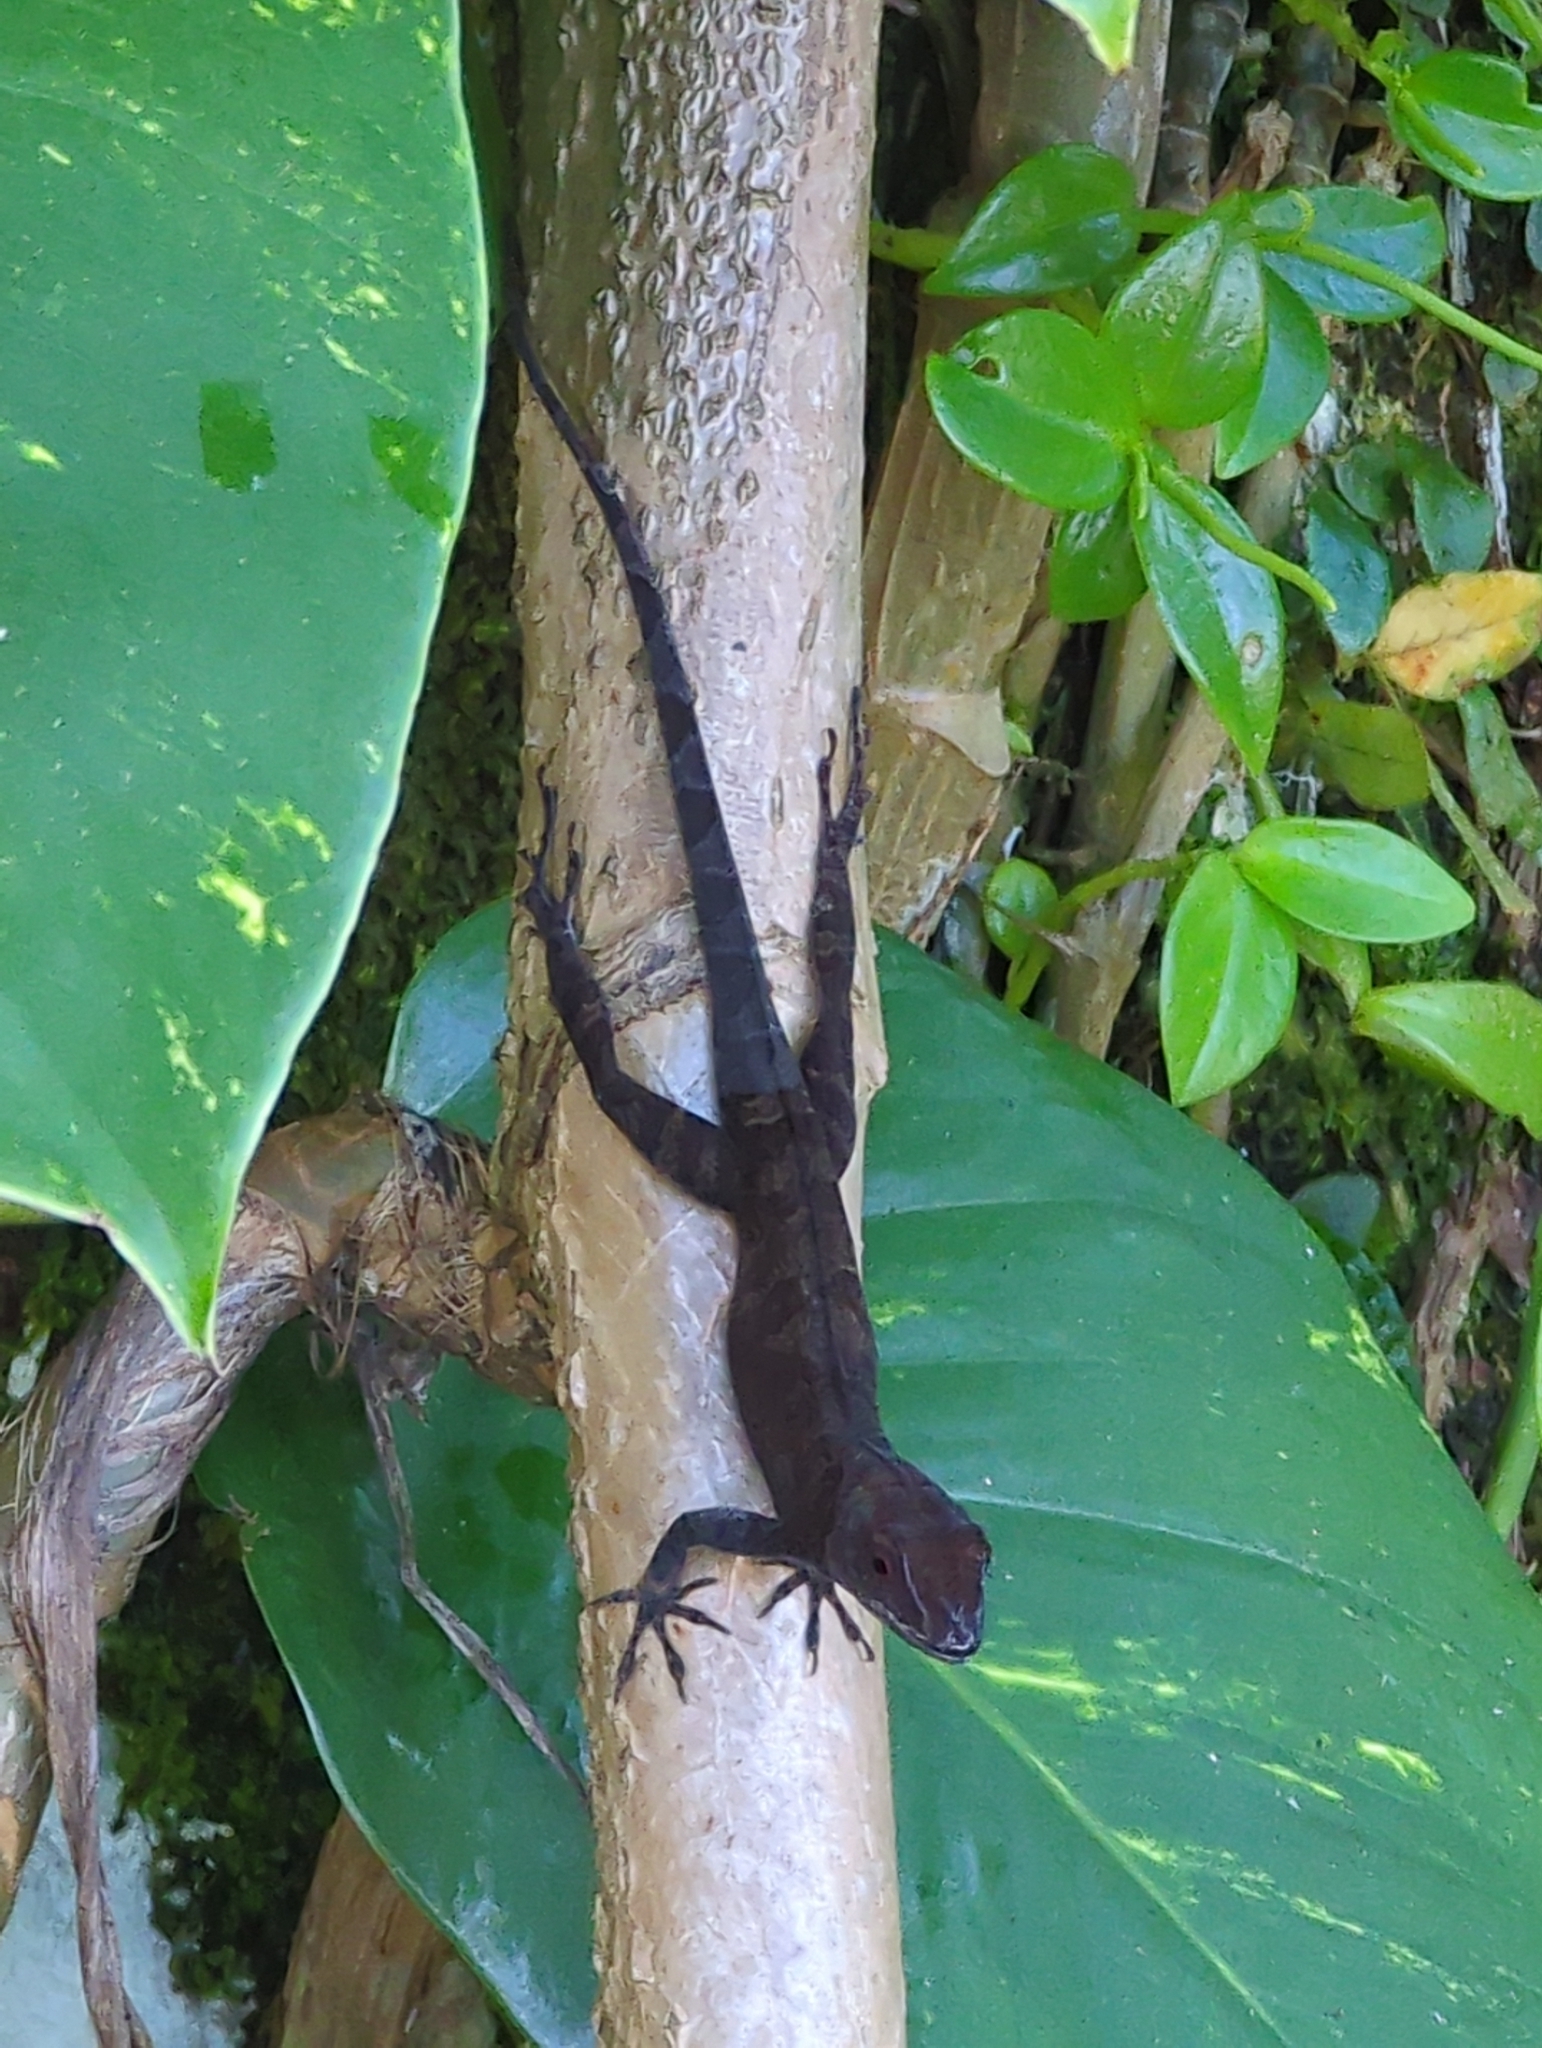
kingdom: Animalia
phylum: Chordata
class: Squamata
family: Dactyloidae
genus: Anolis
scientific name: Anolis cristatellus
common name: Crested anole
